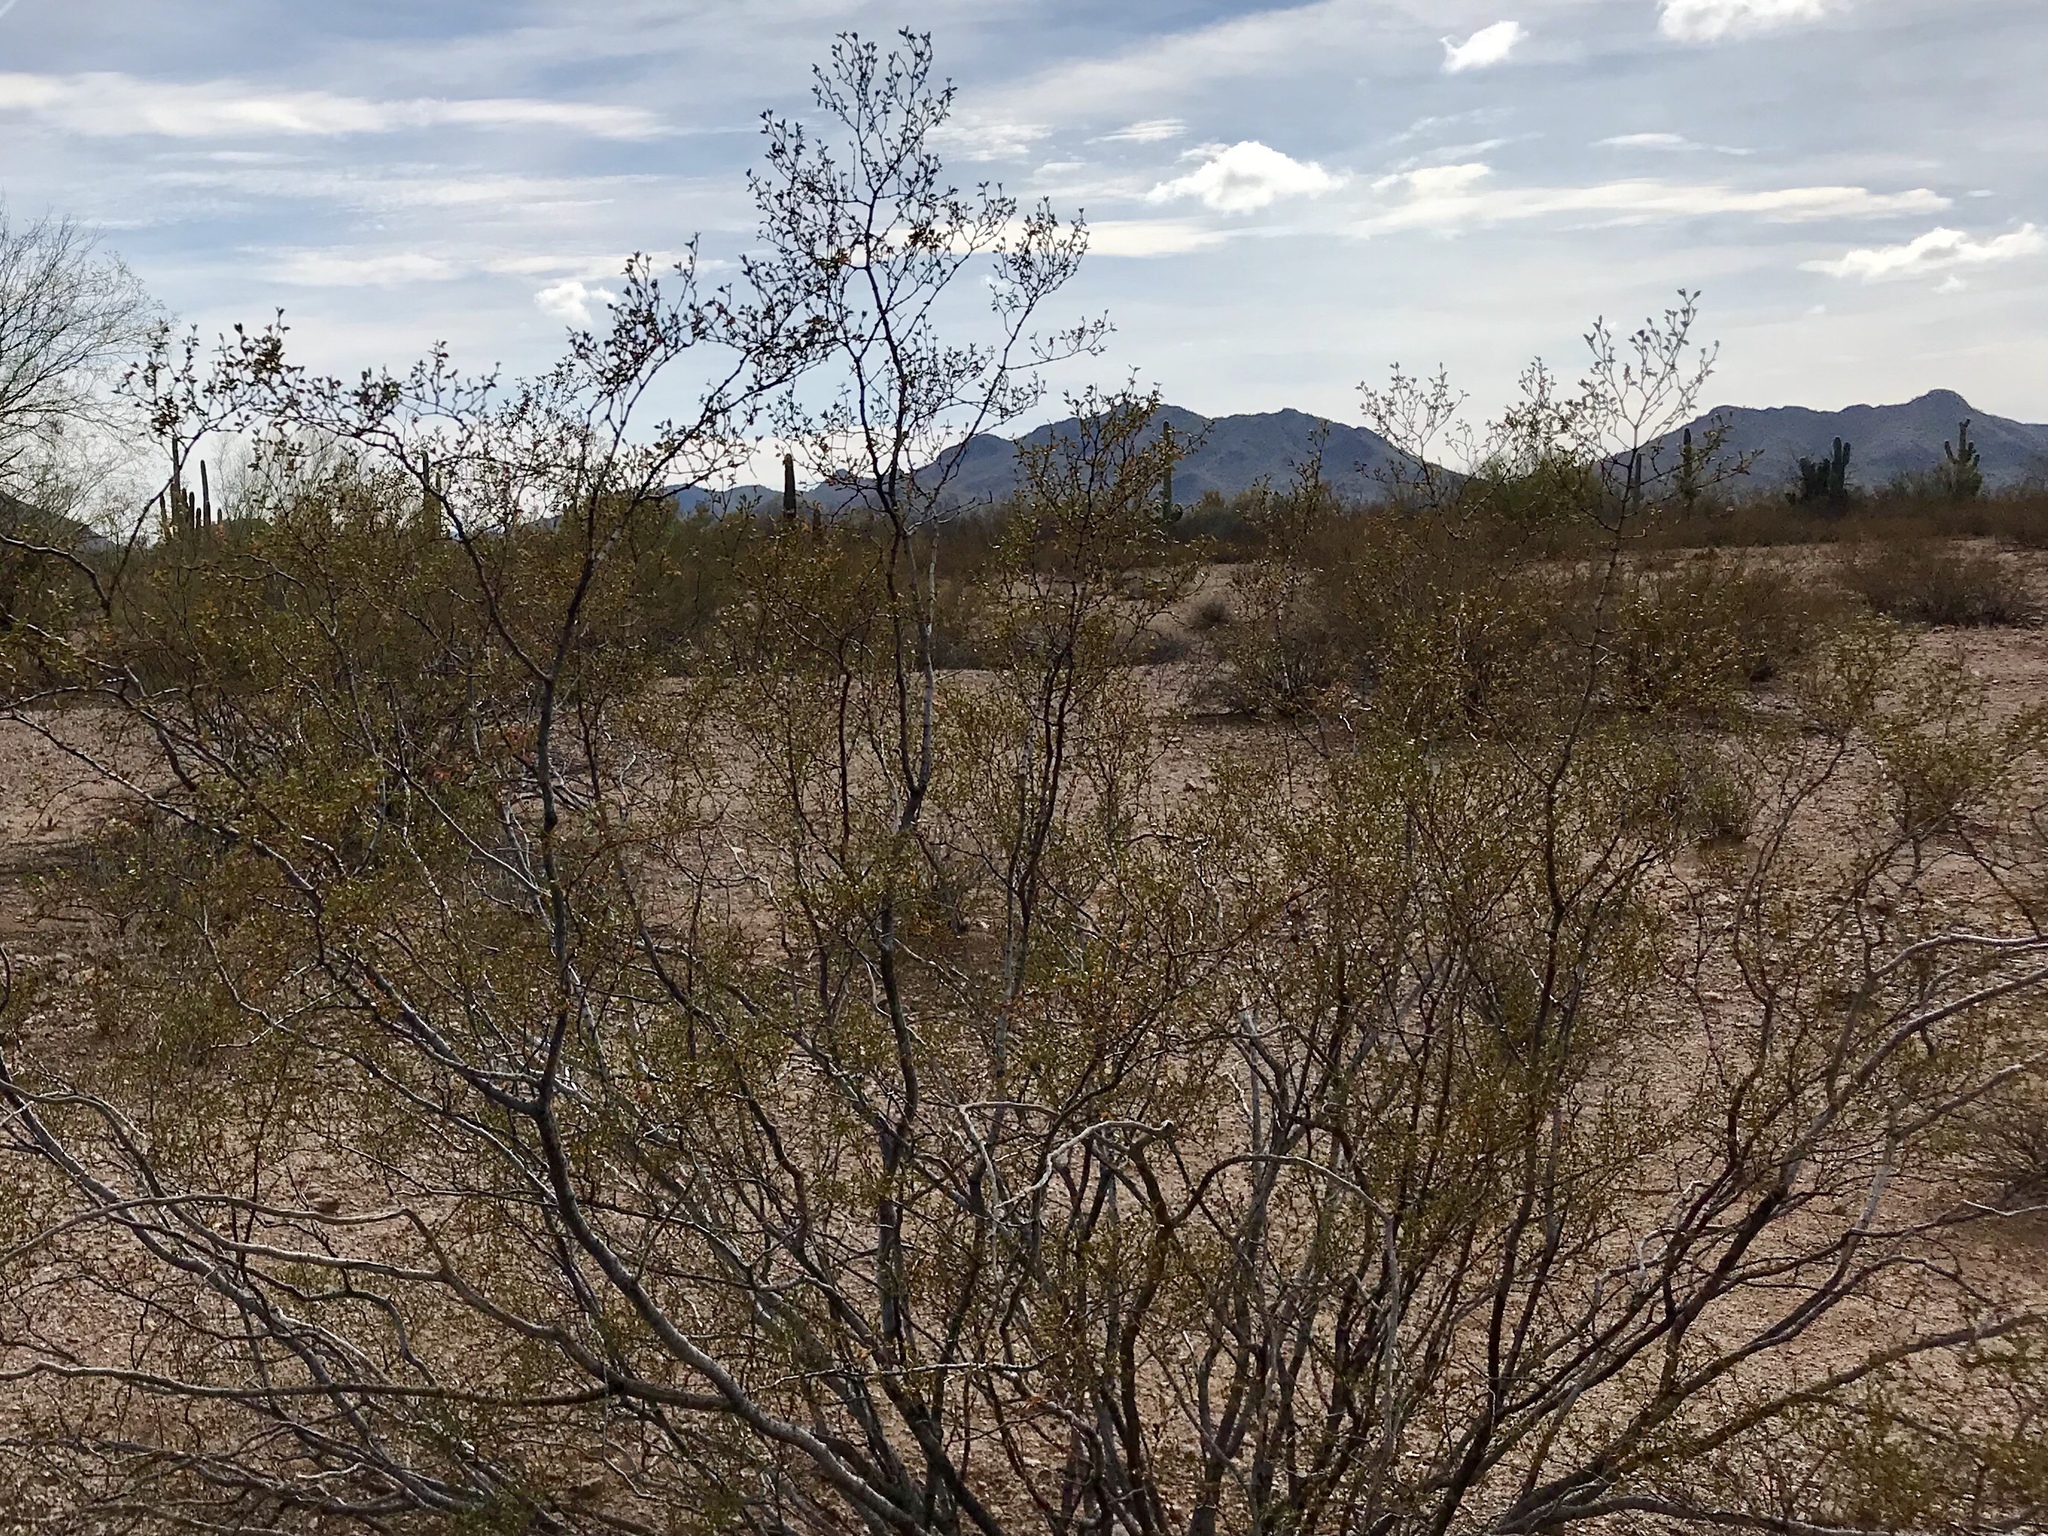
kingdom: Plantae
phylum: Tracheophyta
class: Magnoliopsida
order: Zygophyllales
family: Zygophyllaceae
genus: Larrea
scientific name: Larrea tridentata
